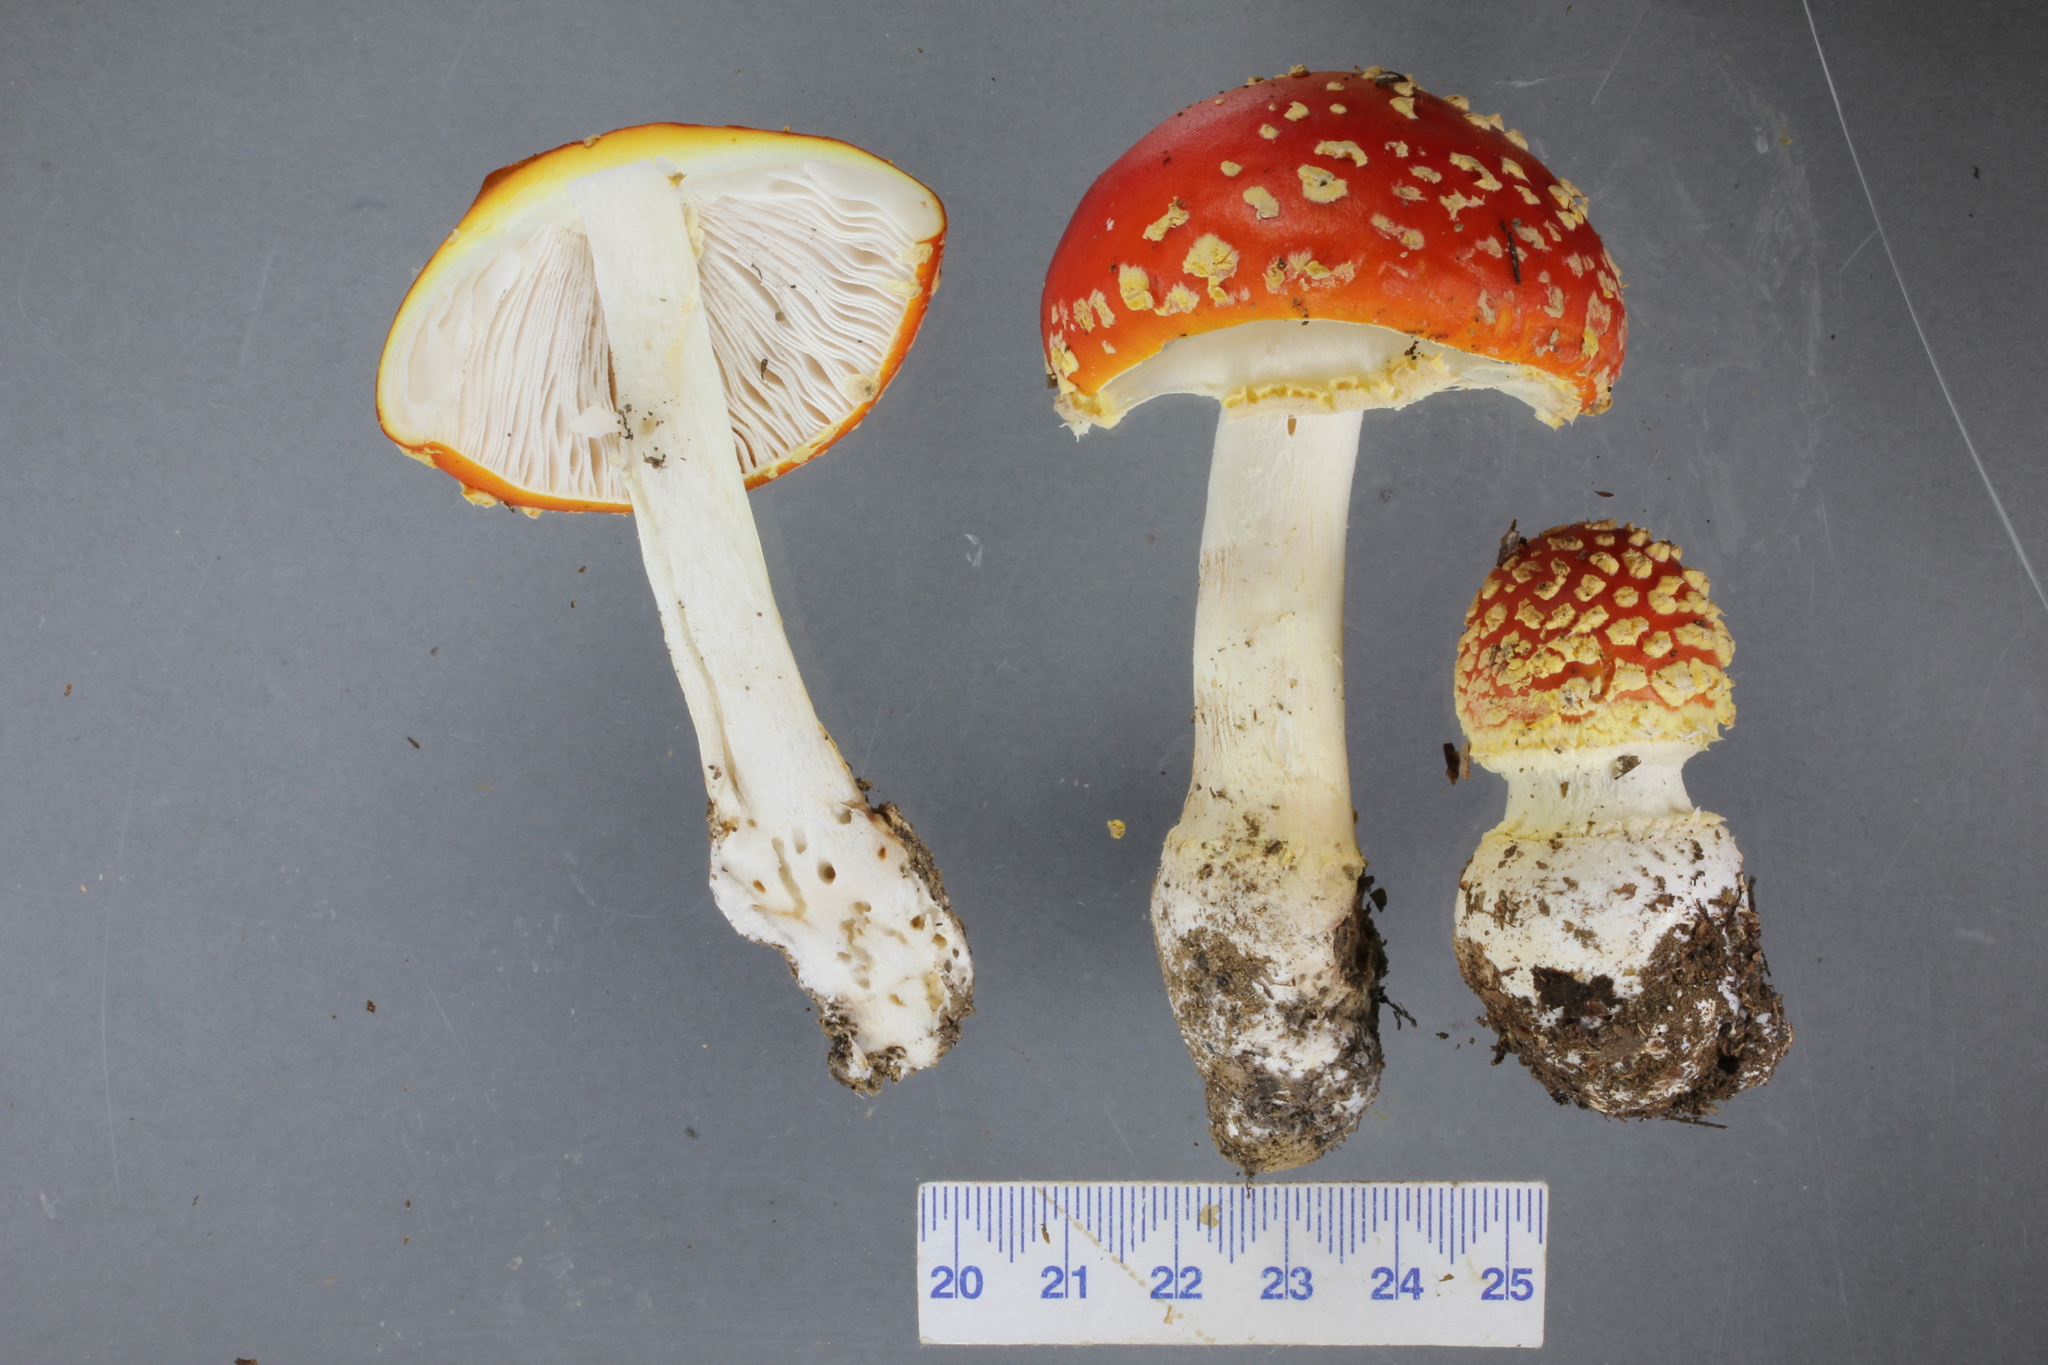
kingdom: Fungi
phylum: Basidiomycota
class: Agaricomycetes
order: Agaricales
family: Amanitaceae
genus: Amanita
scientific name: Amanita muscaria
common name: Fly agaric
